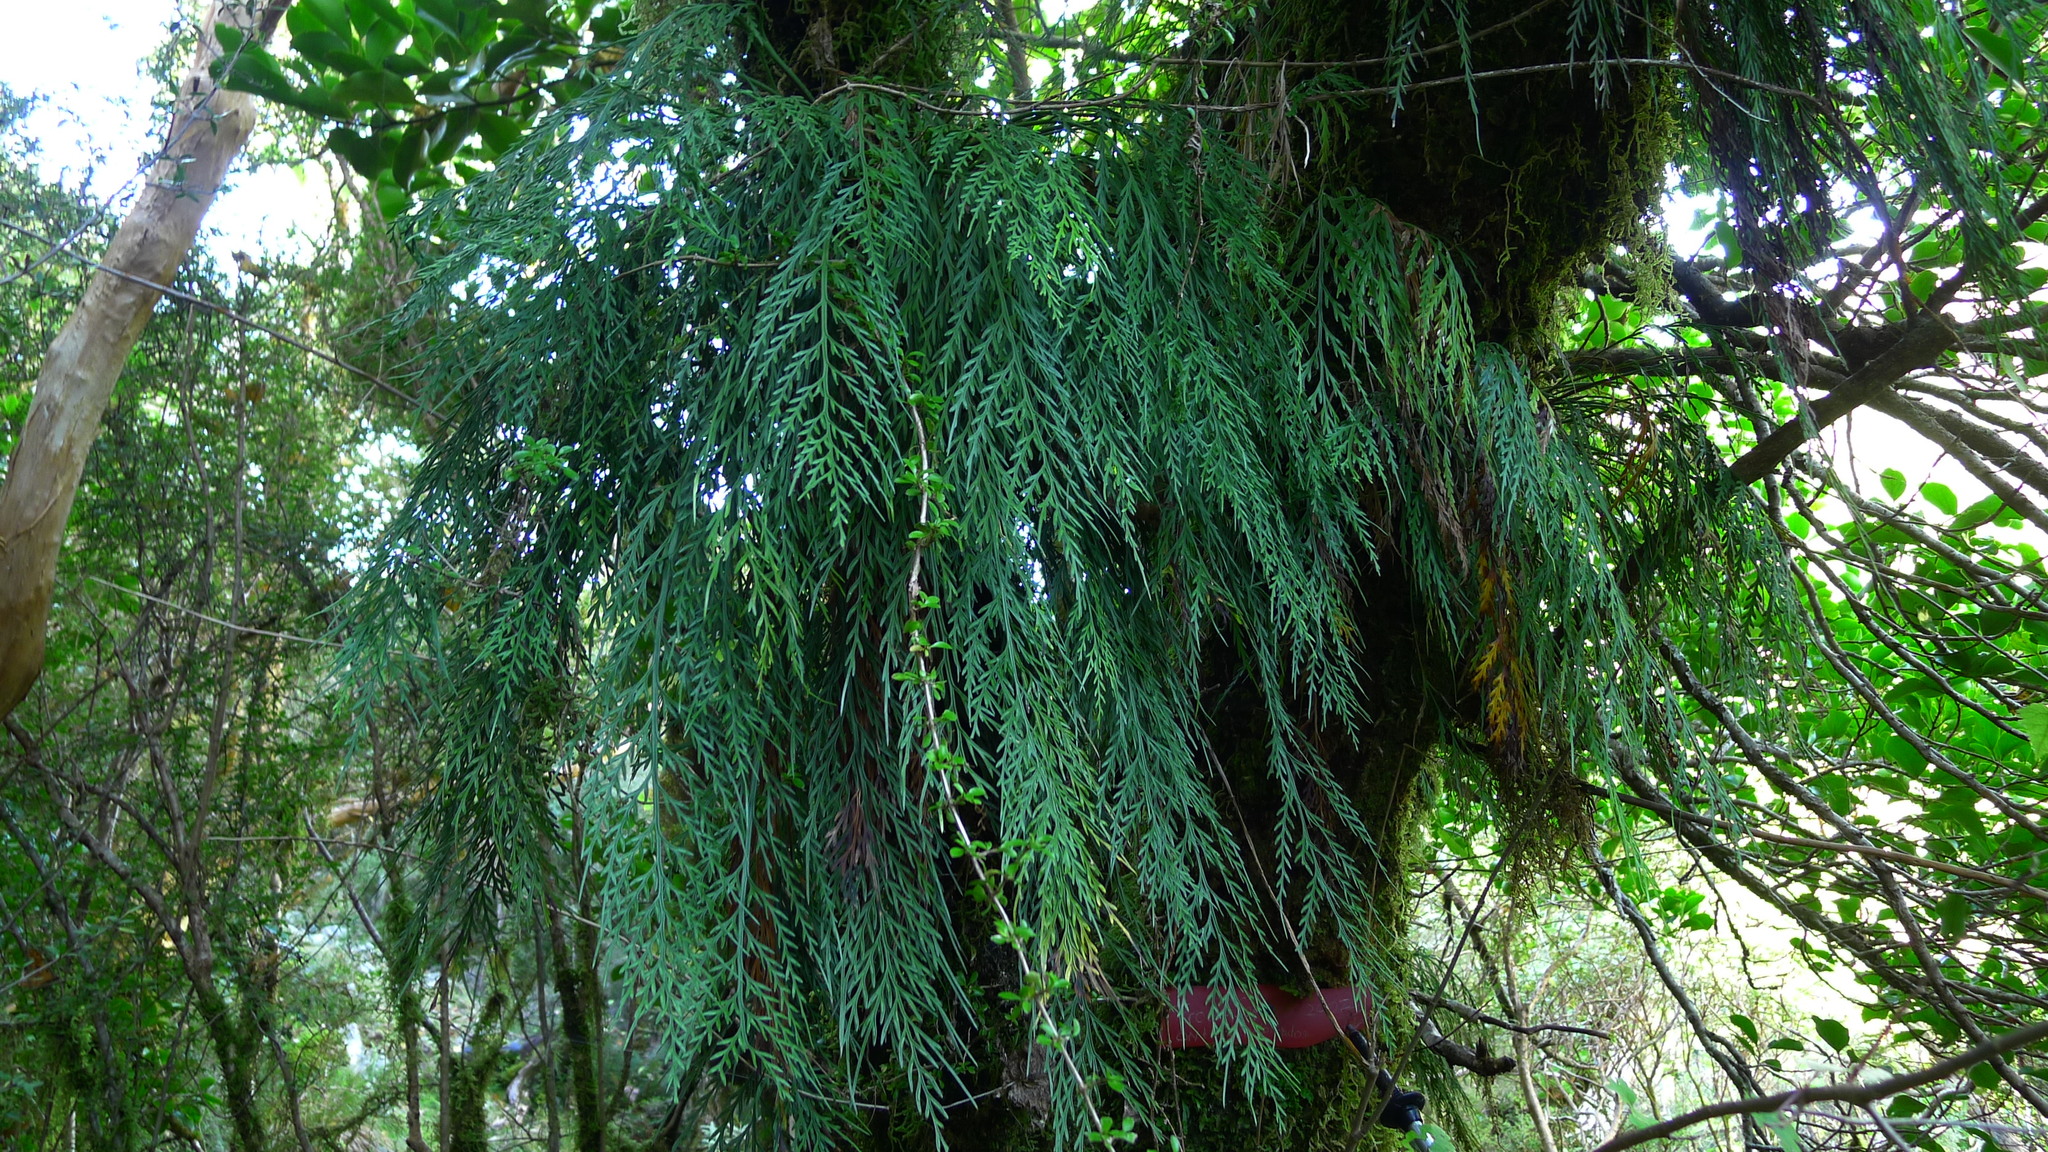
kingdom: Plantae
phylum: Tracheophyta
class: Polypodiopsida
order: Polypodiales
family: Aspleniaceae
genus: Asplenium
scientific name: Asplenium flaccidum
